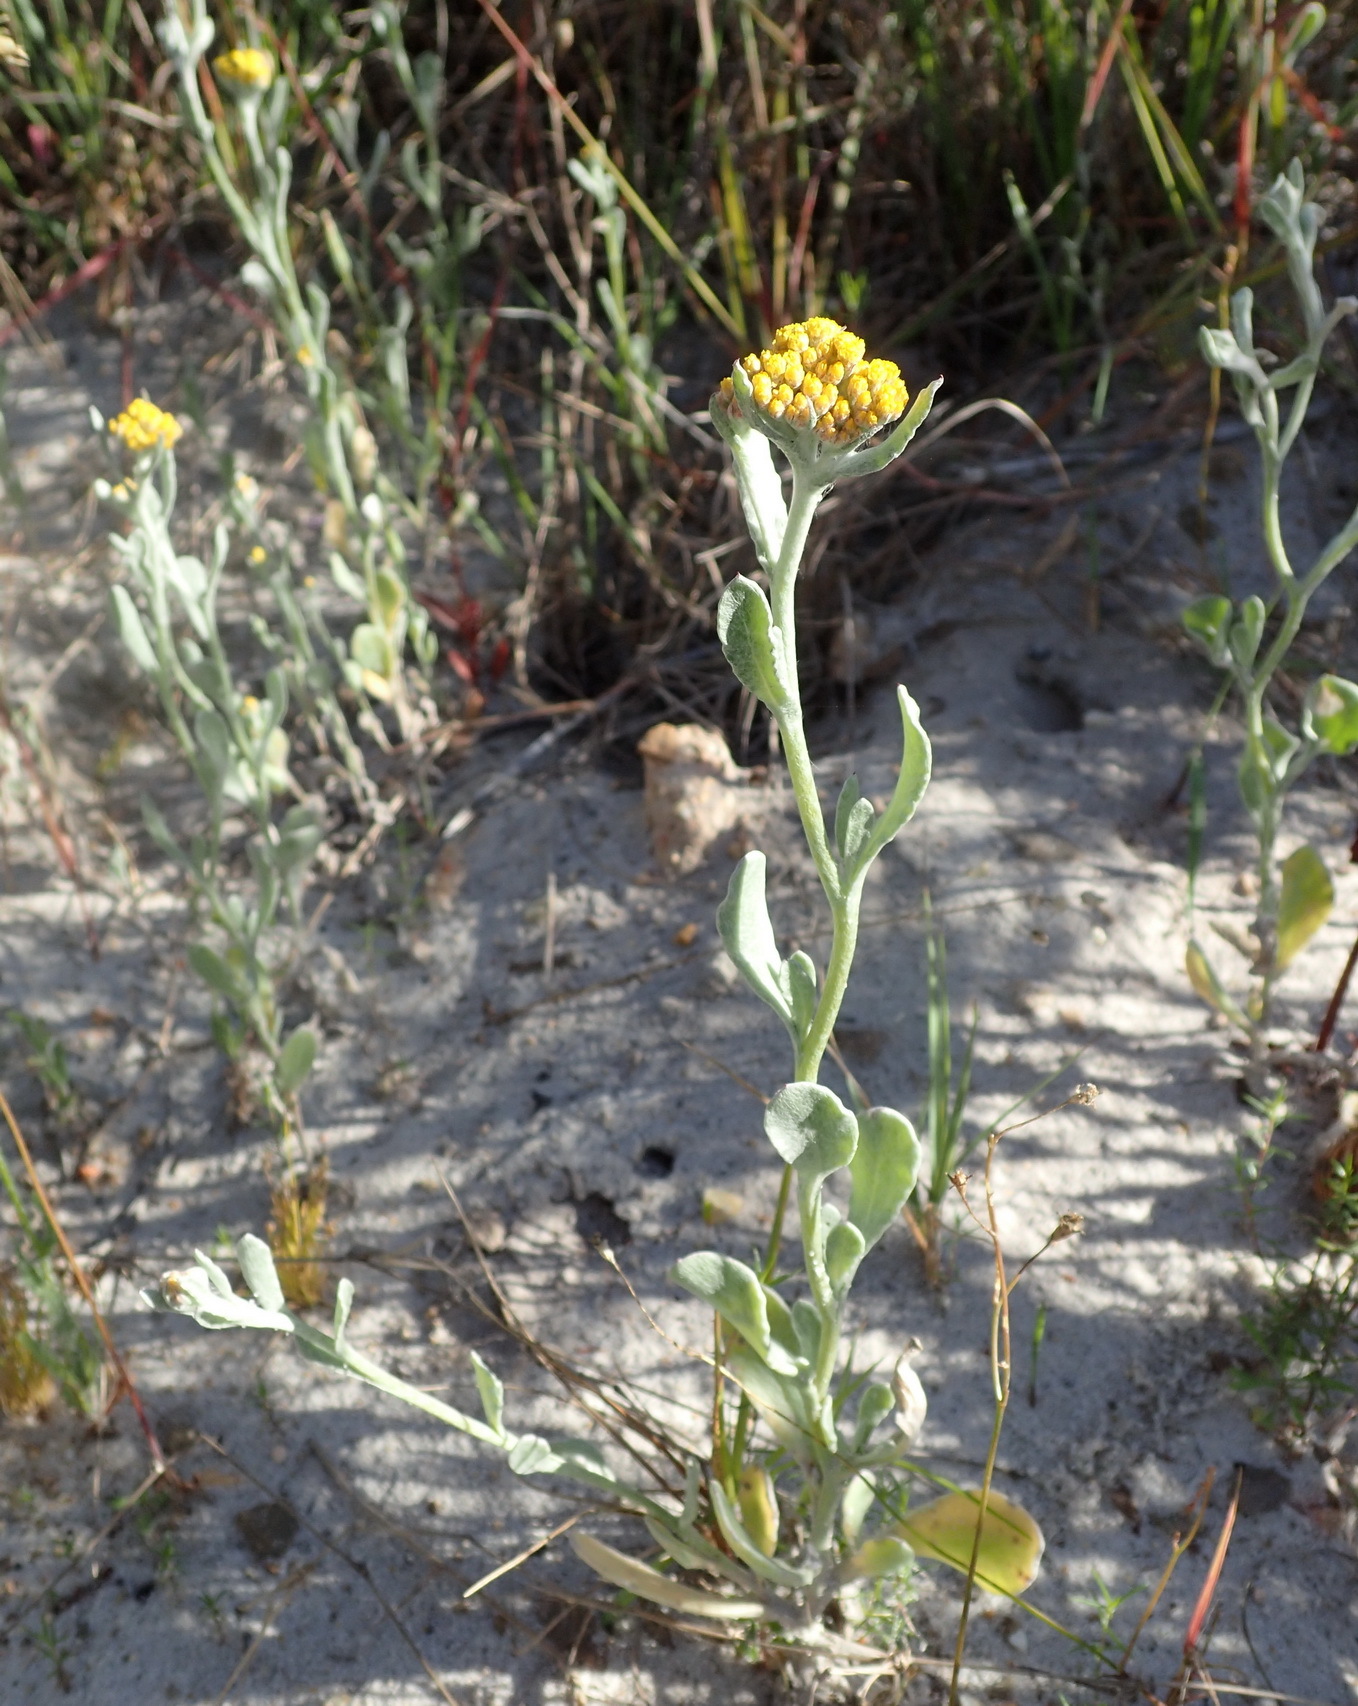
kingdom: Plantae
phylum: Tracheophyta
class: Magnoliopsida
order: Asterales
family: Asteraceae
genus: Helichrysum
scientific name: Helichrysum dasyanthum
